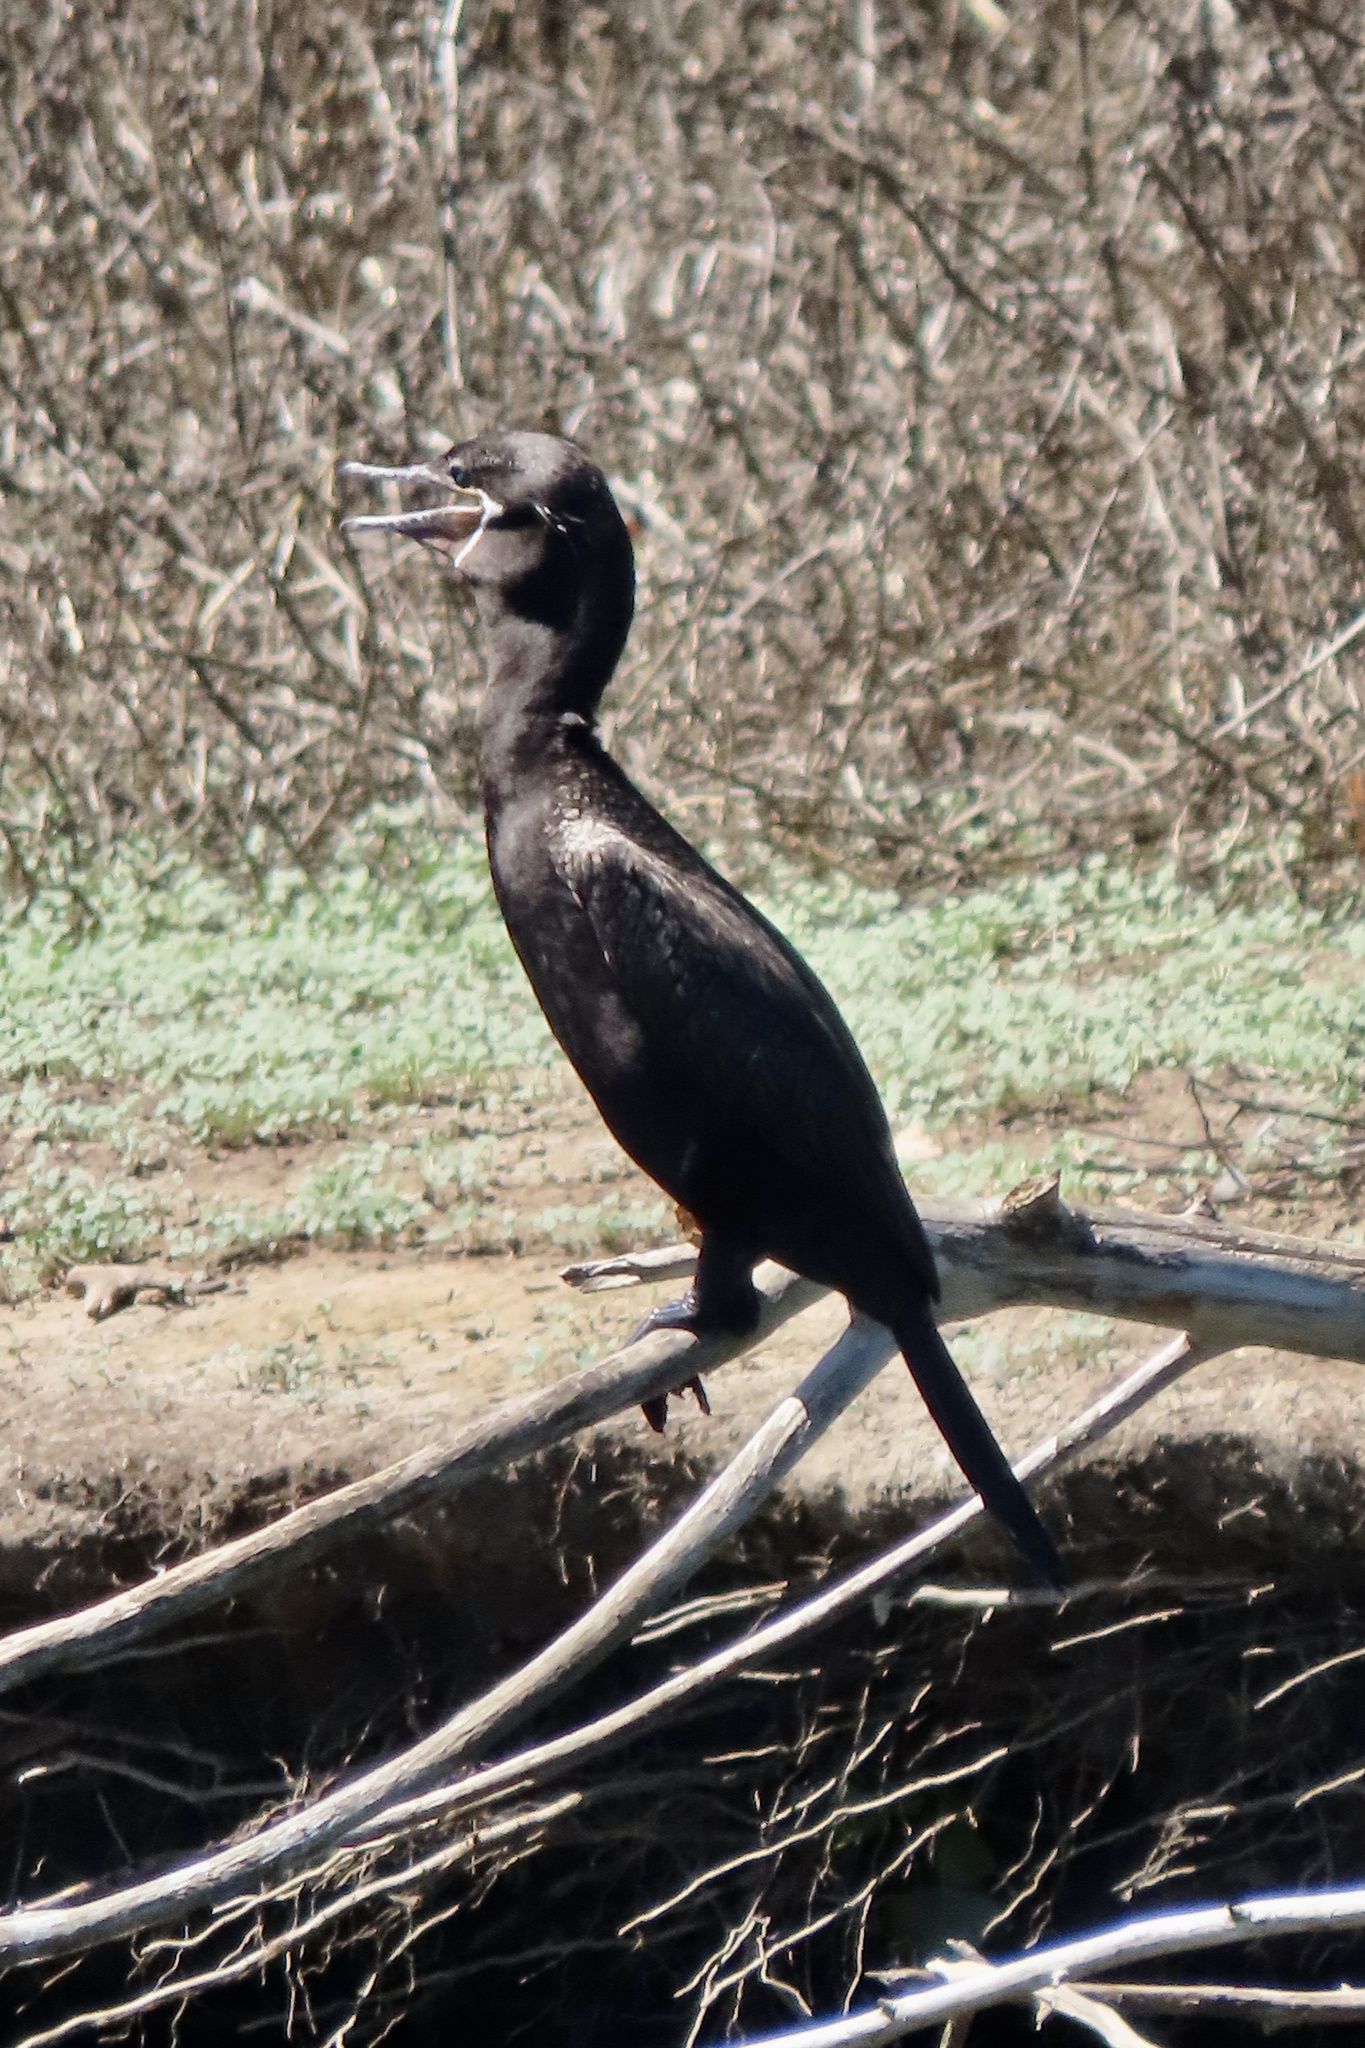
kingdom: Animalia
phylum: Chordata
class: Aves
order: Suliformes
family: Phalacrocoracidae
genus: Phalacrocorax
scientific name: Phalacrocorax brasilianus
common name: Neotropic cormorant
